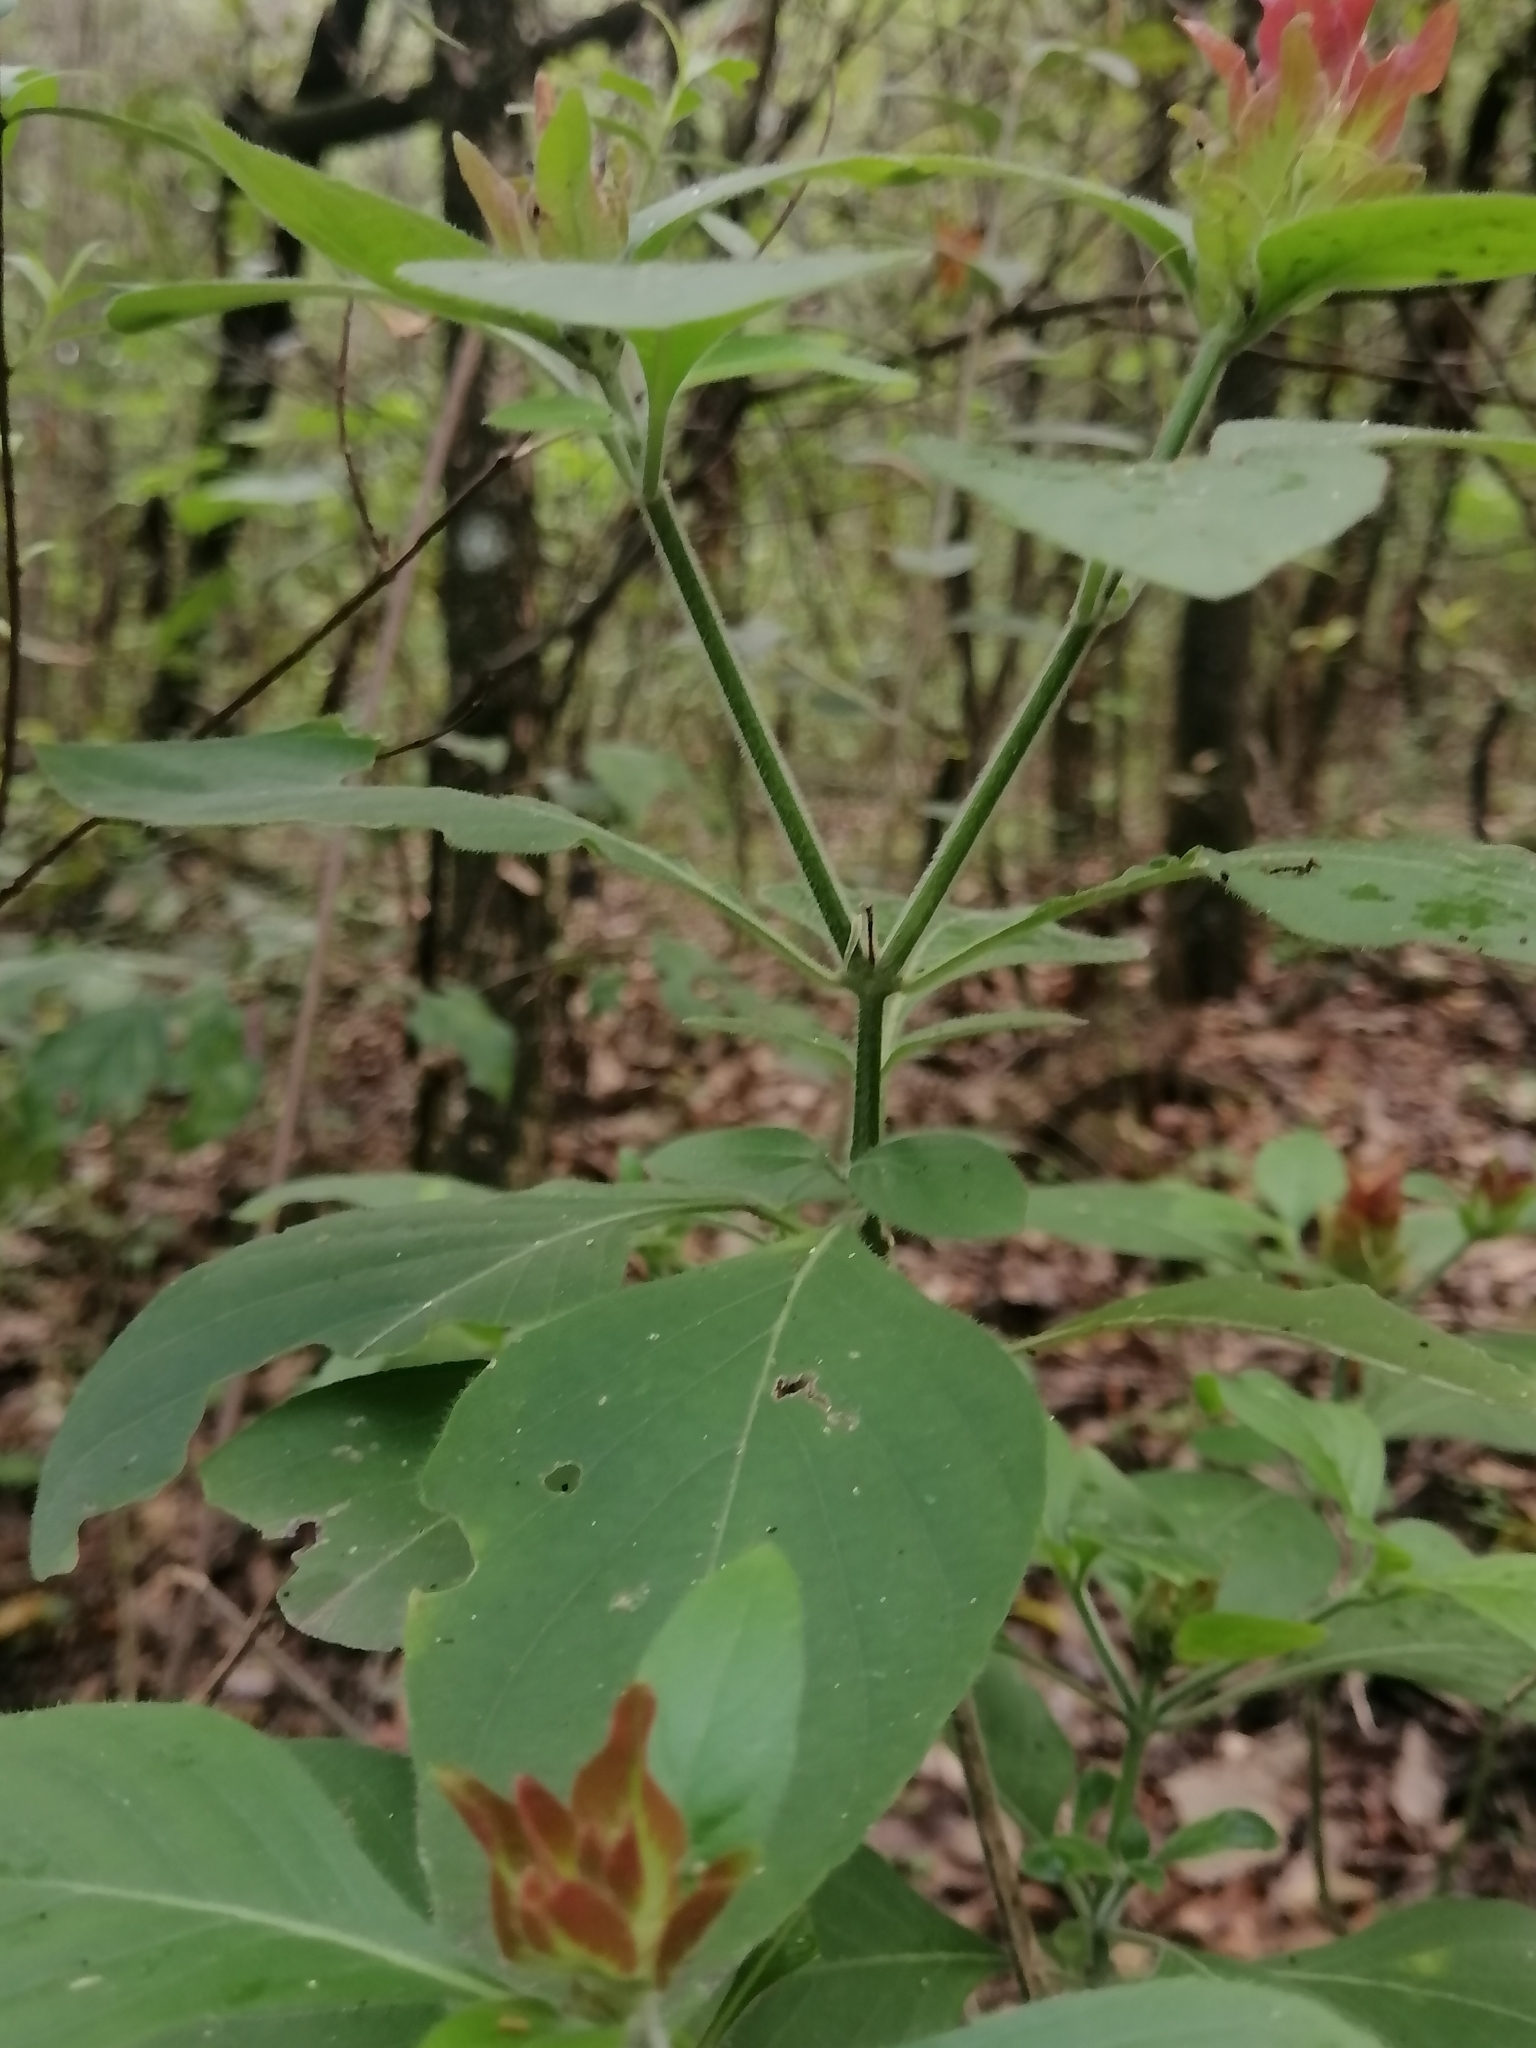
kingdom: Plantae
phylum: Tracheophyta
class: Magnoliopsida
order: Lamiales
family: Acanthaceae
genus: Justicia
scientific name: Justicia fulvicoma
